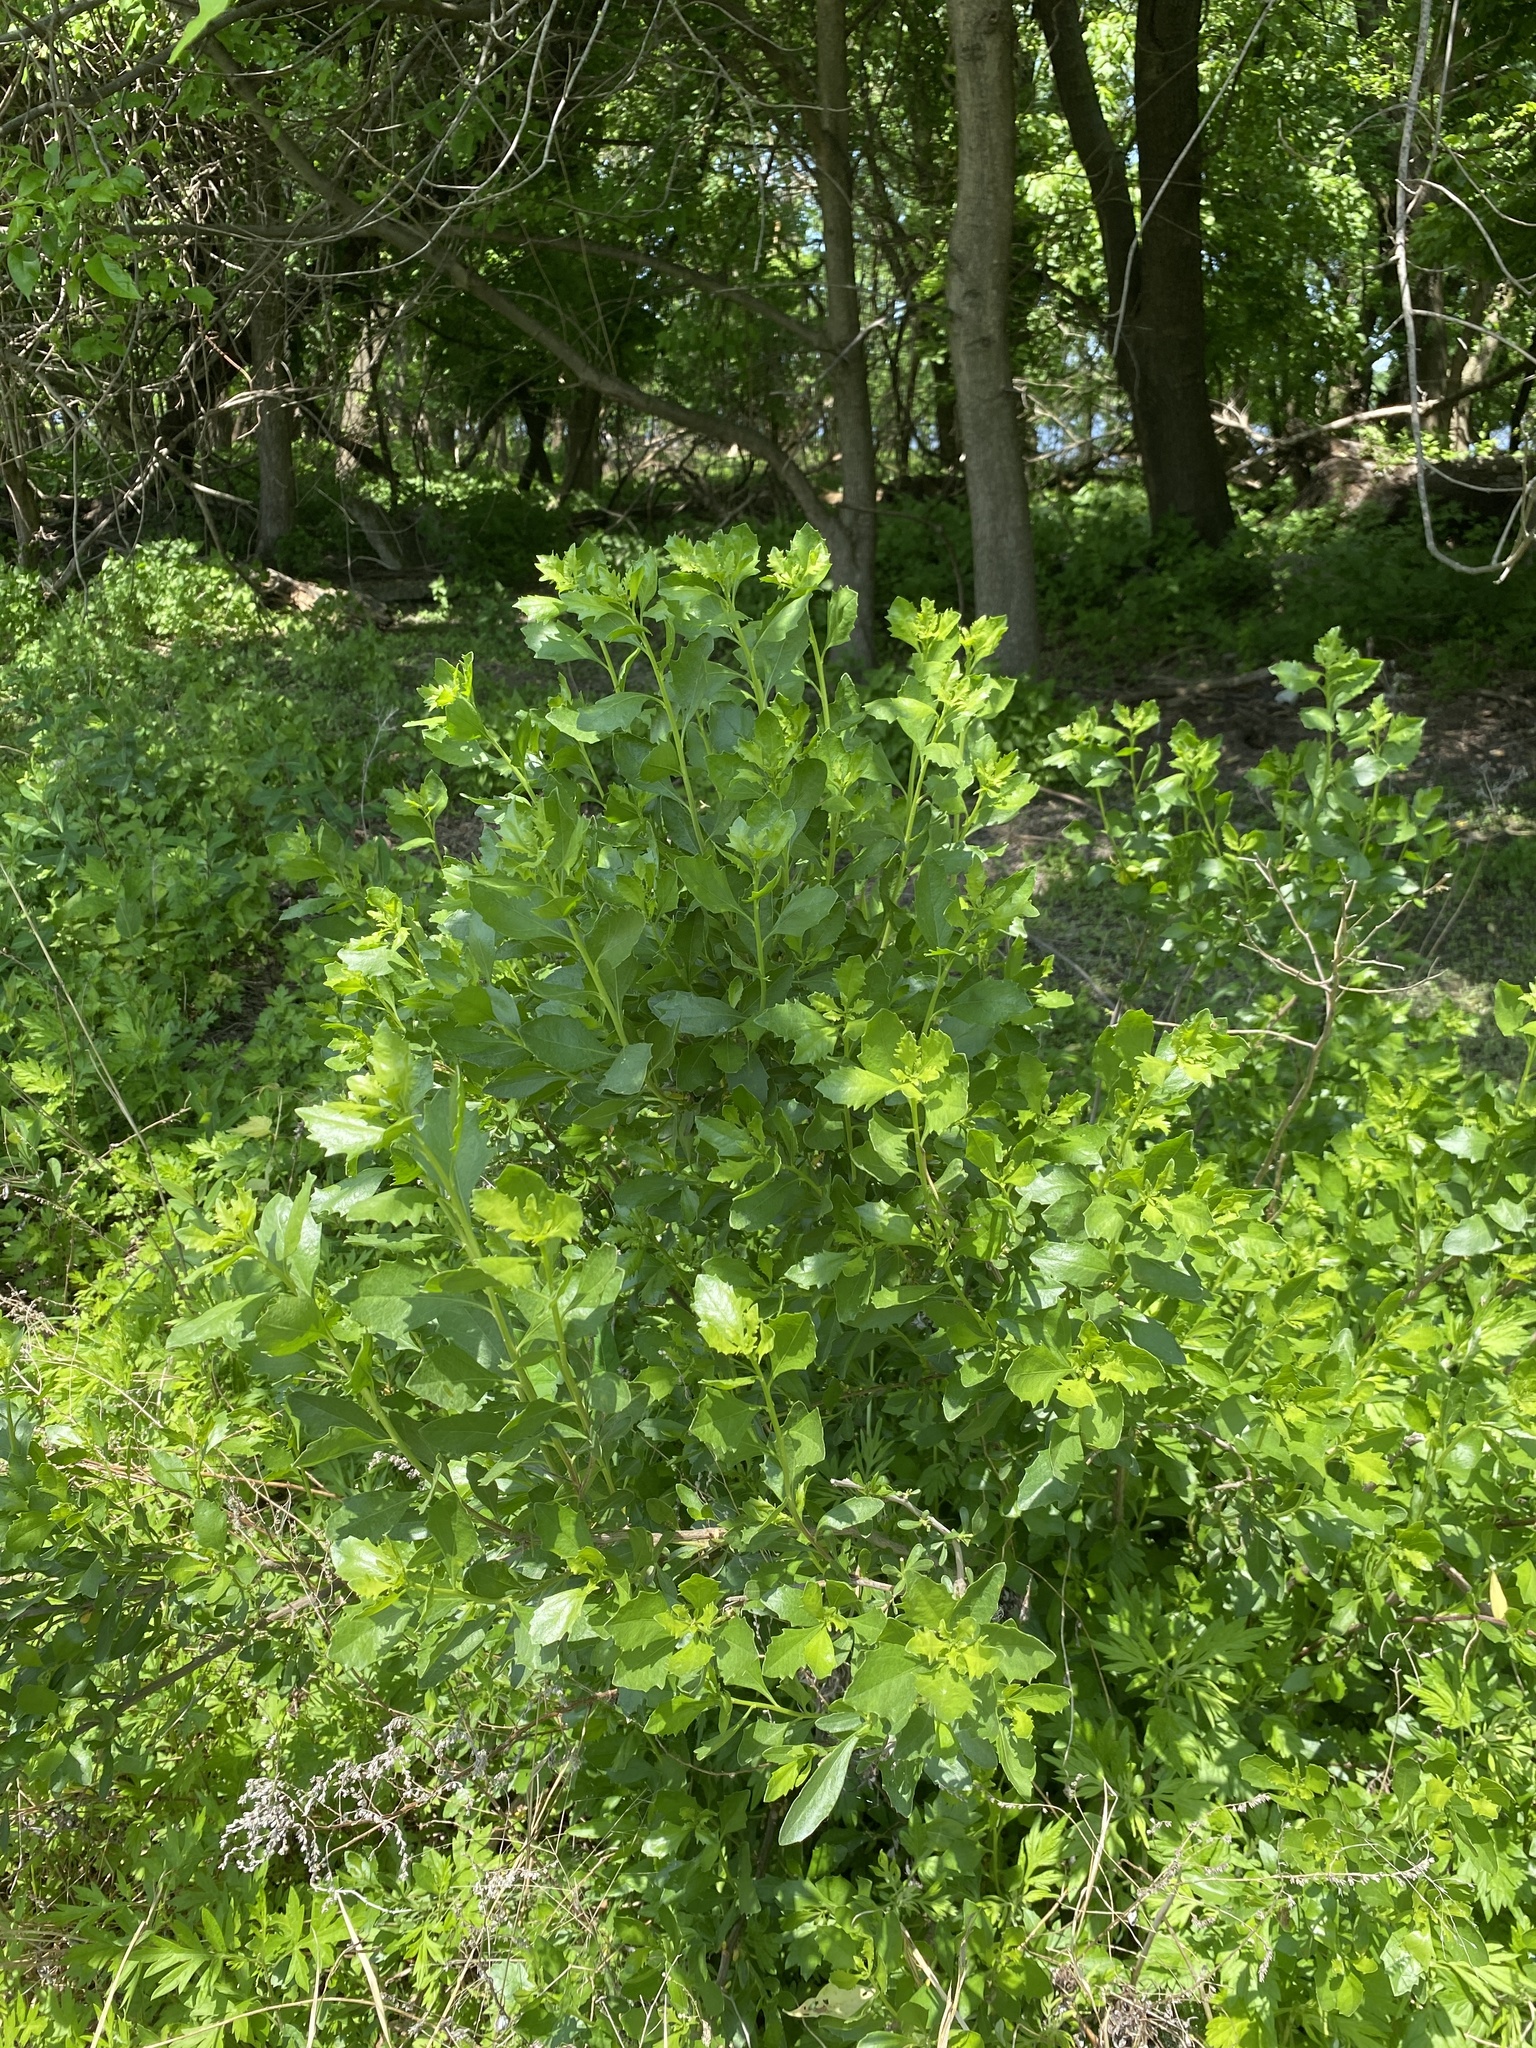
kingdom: Plantae
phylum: Tracheophyta
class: Magnoliopsida
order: Asterales
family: Asteraceae
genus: Baccharis
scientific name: Baccharis halimifolia
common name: Eastern baccharis
